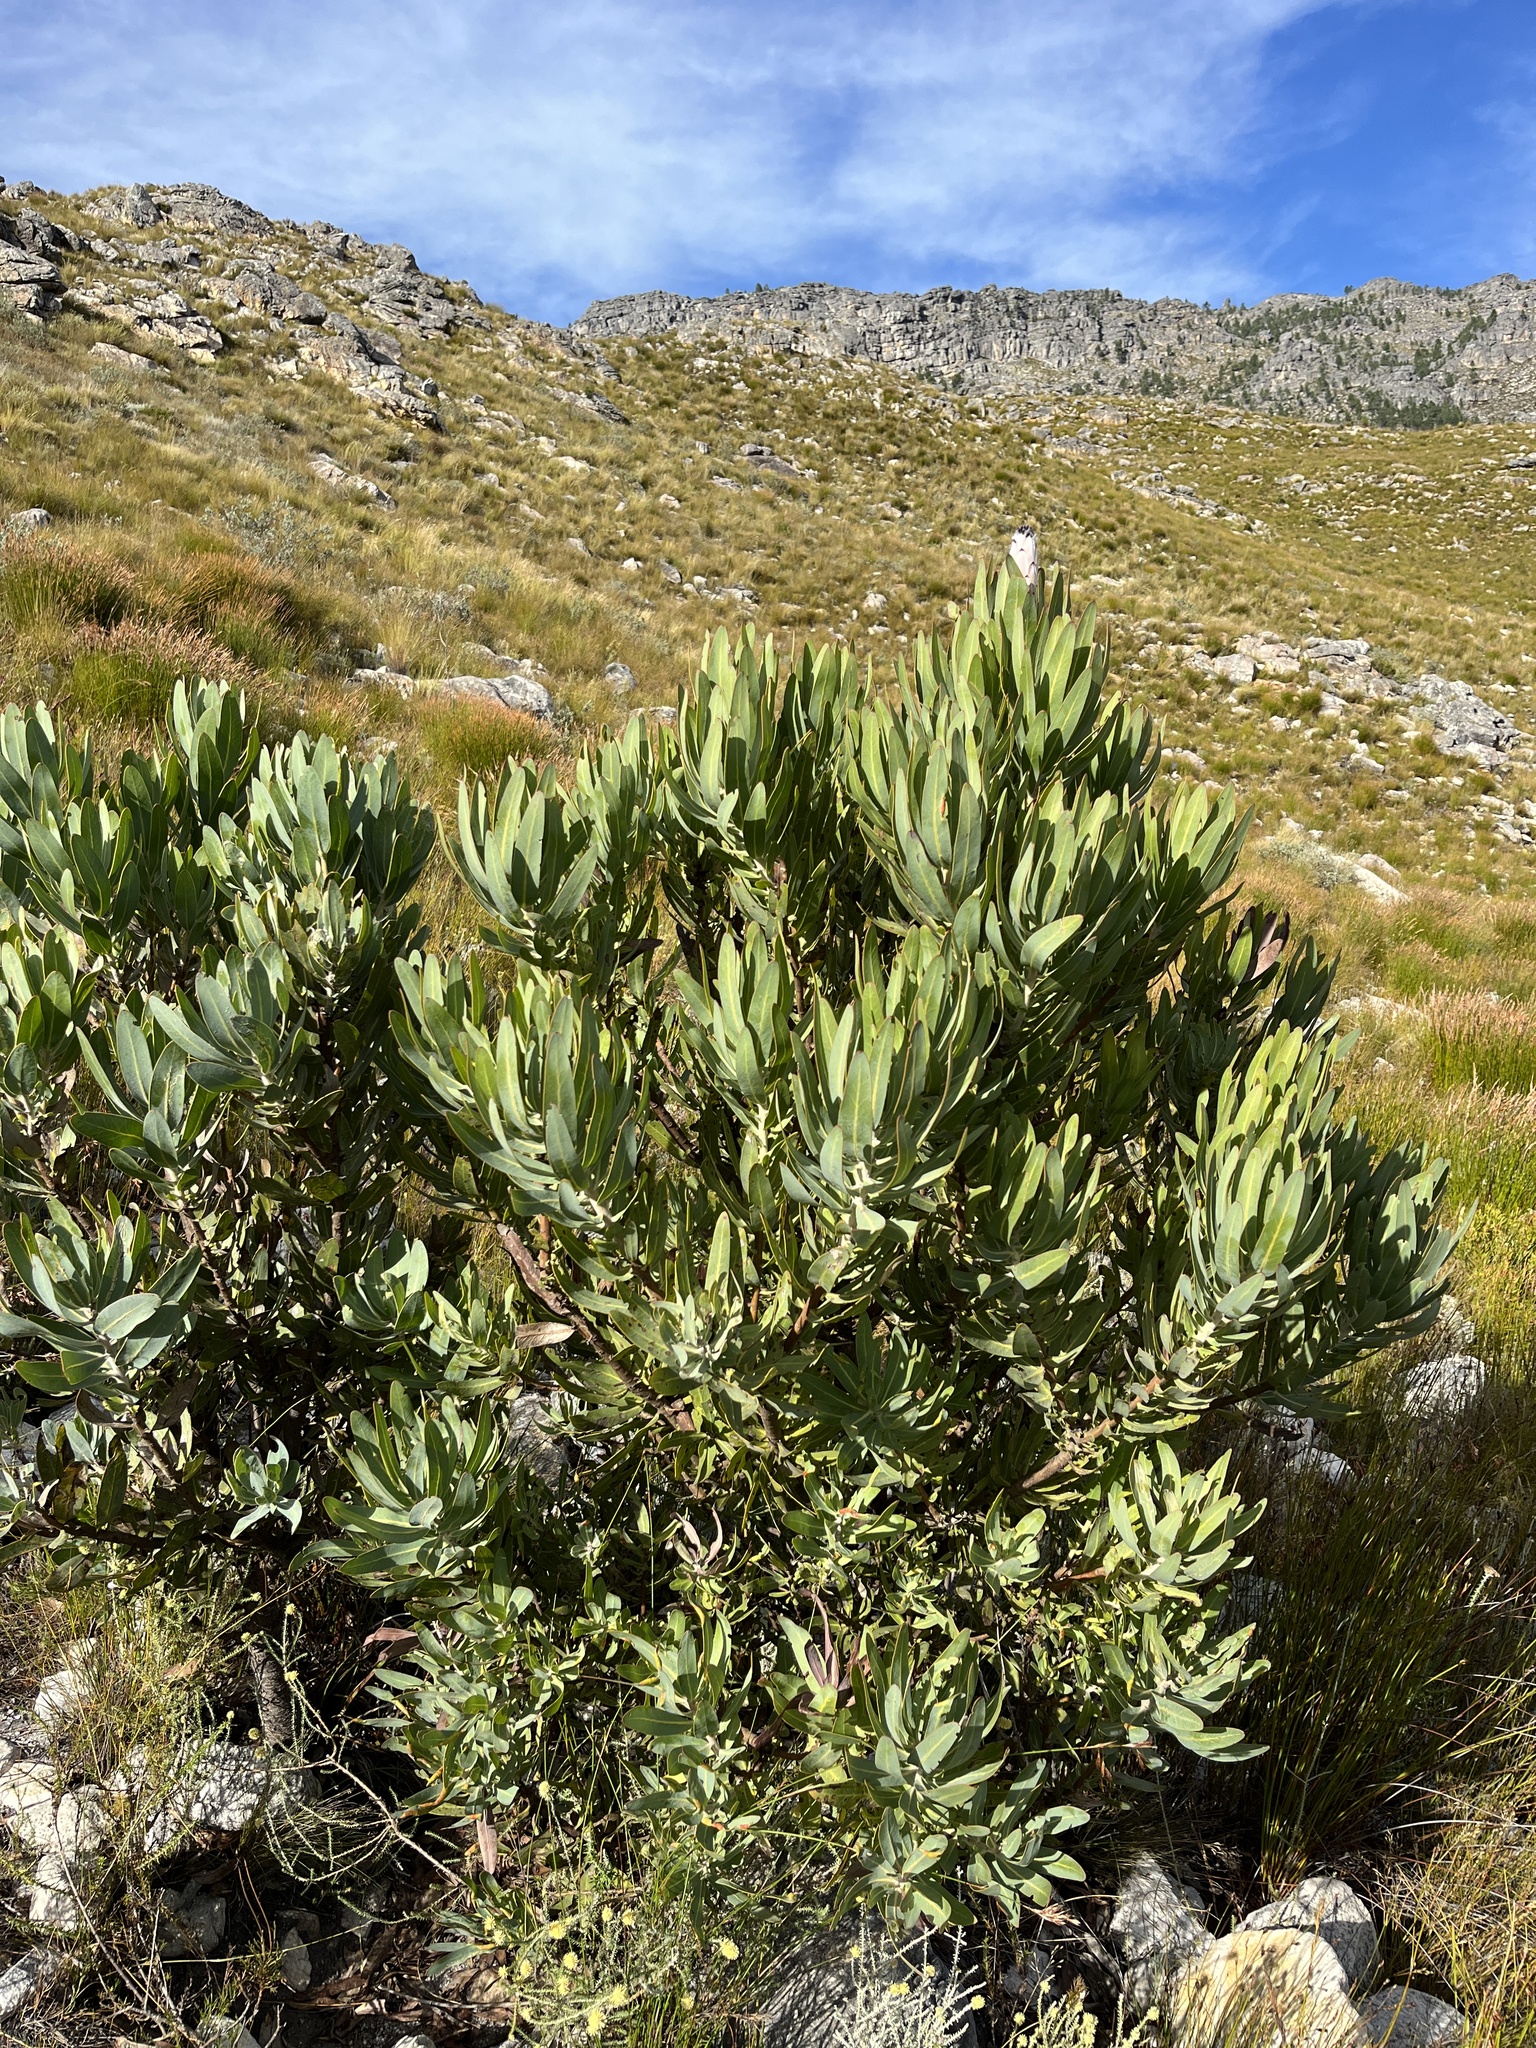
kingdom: Plantae
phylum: Tracheophyta
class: Magnoliopsida
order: Proteales
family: Proteaceae
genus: Protea
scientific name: Protea laurifolia
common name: Grey-leaf sugarbsh
